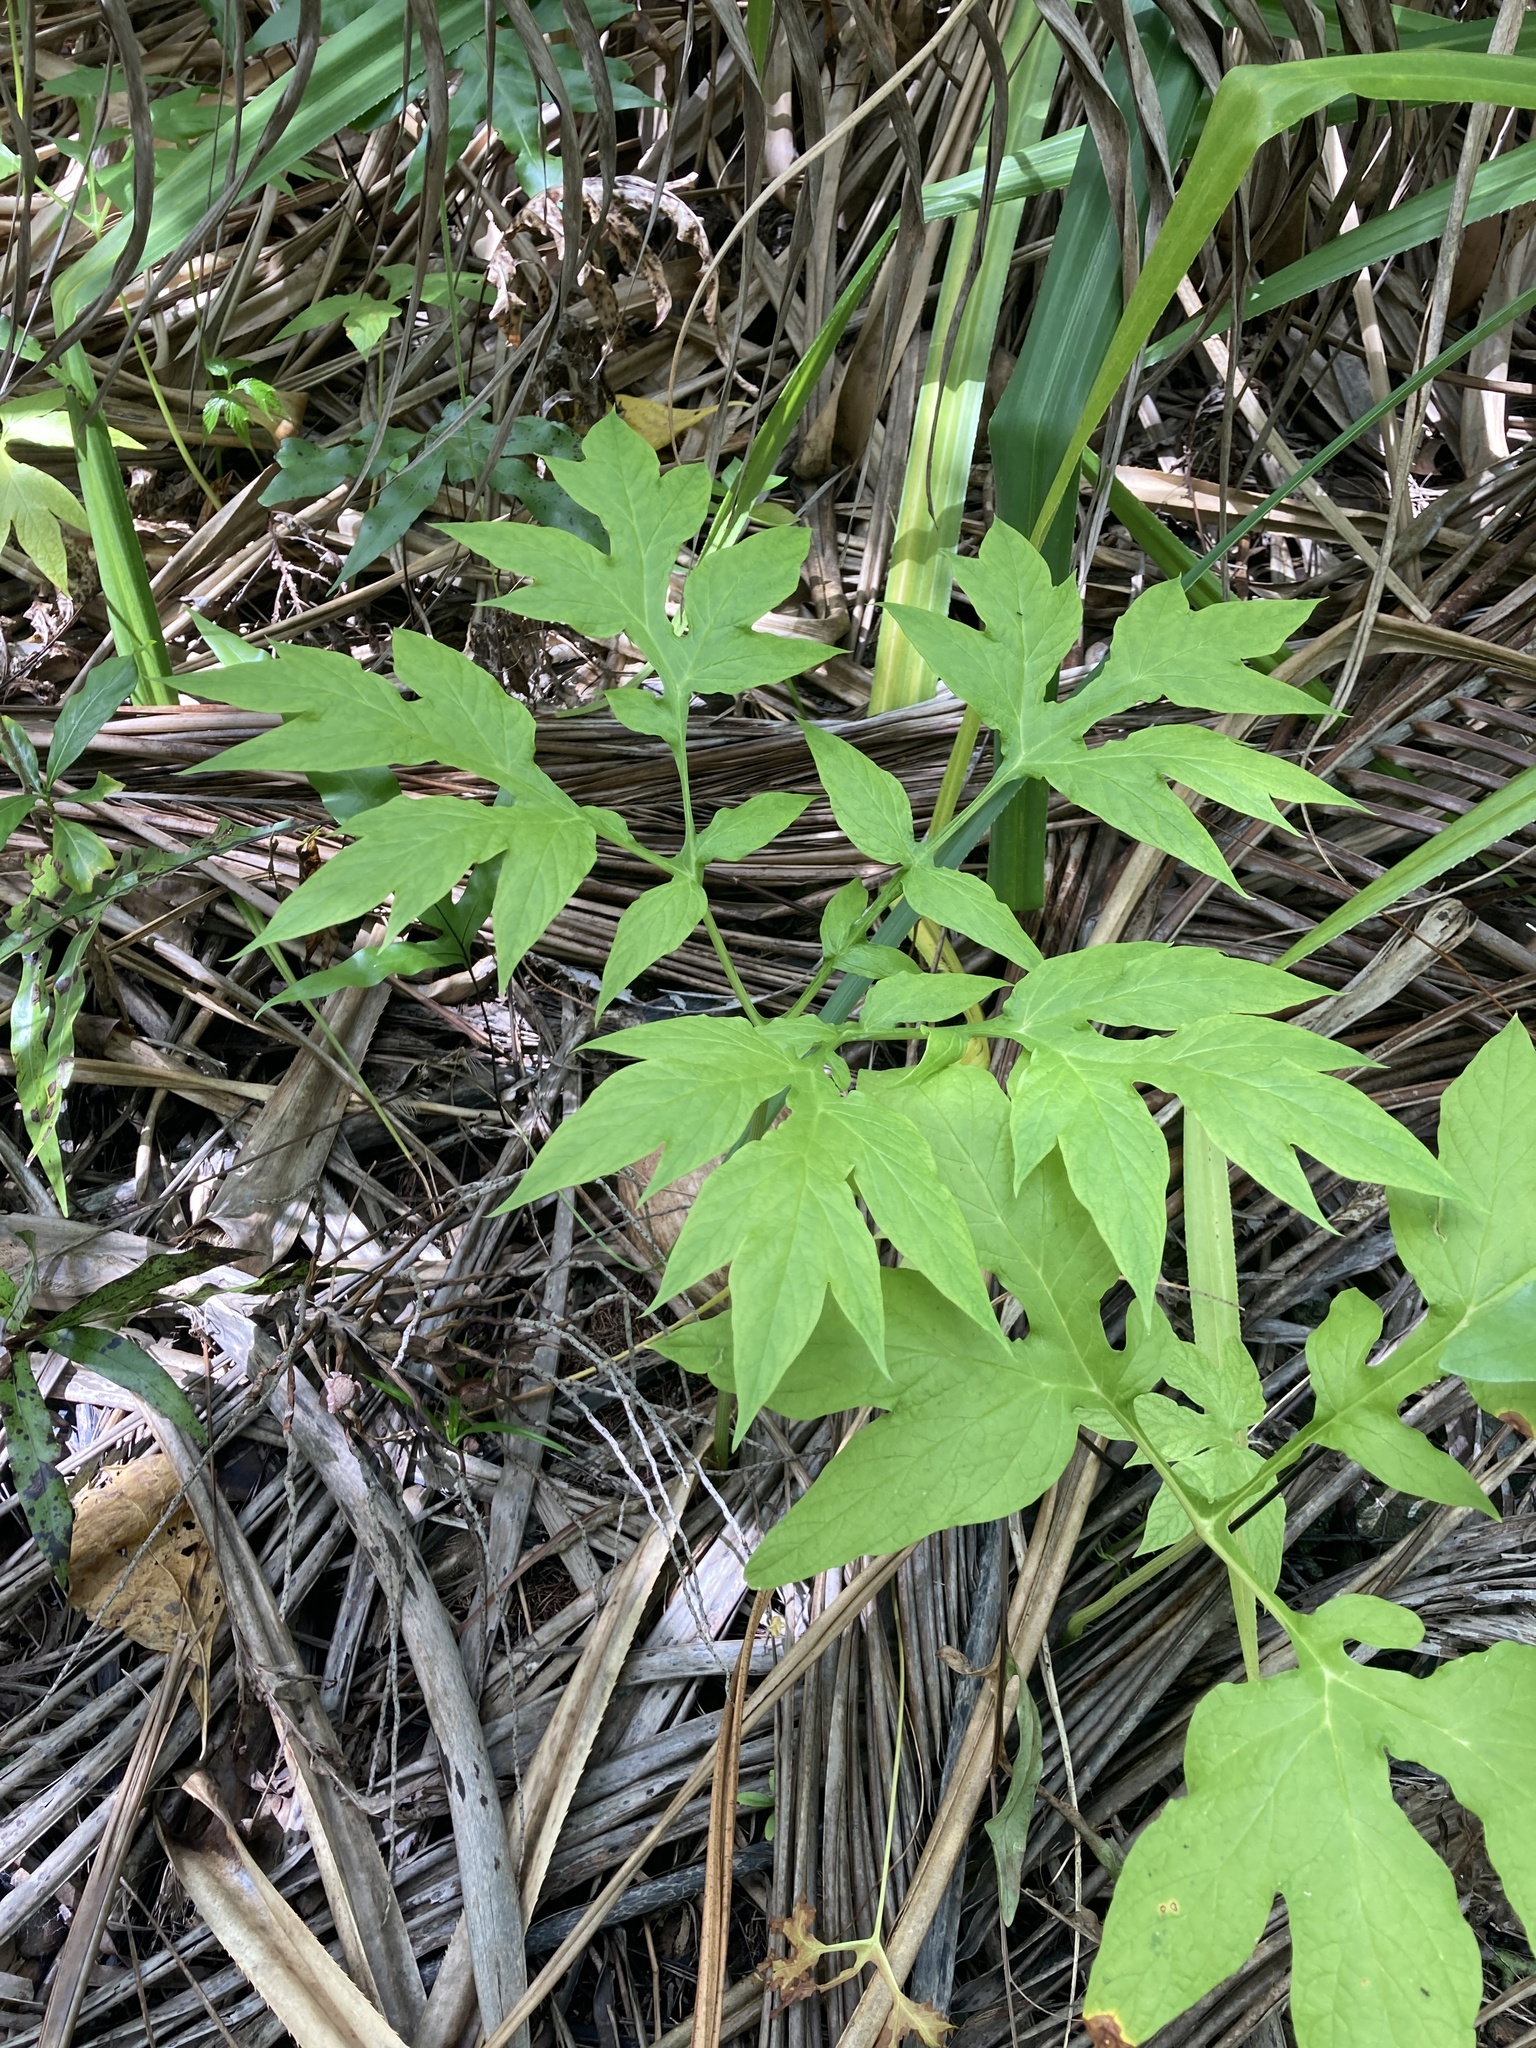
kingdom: Plantae
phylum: Tracheophyta
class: Liliopsida
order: Dioscoreales
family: Dioscoreaceae
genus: Tacca
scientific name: Tacca leontopetaloides
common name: Arrowroot
